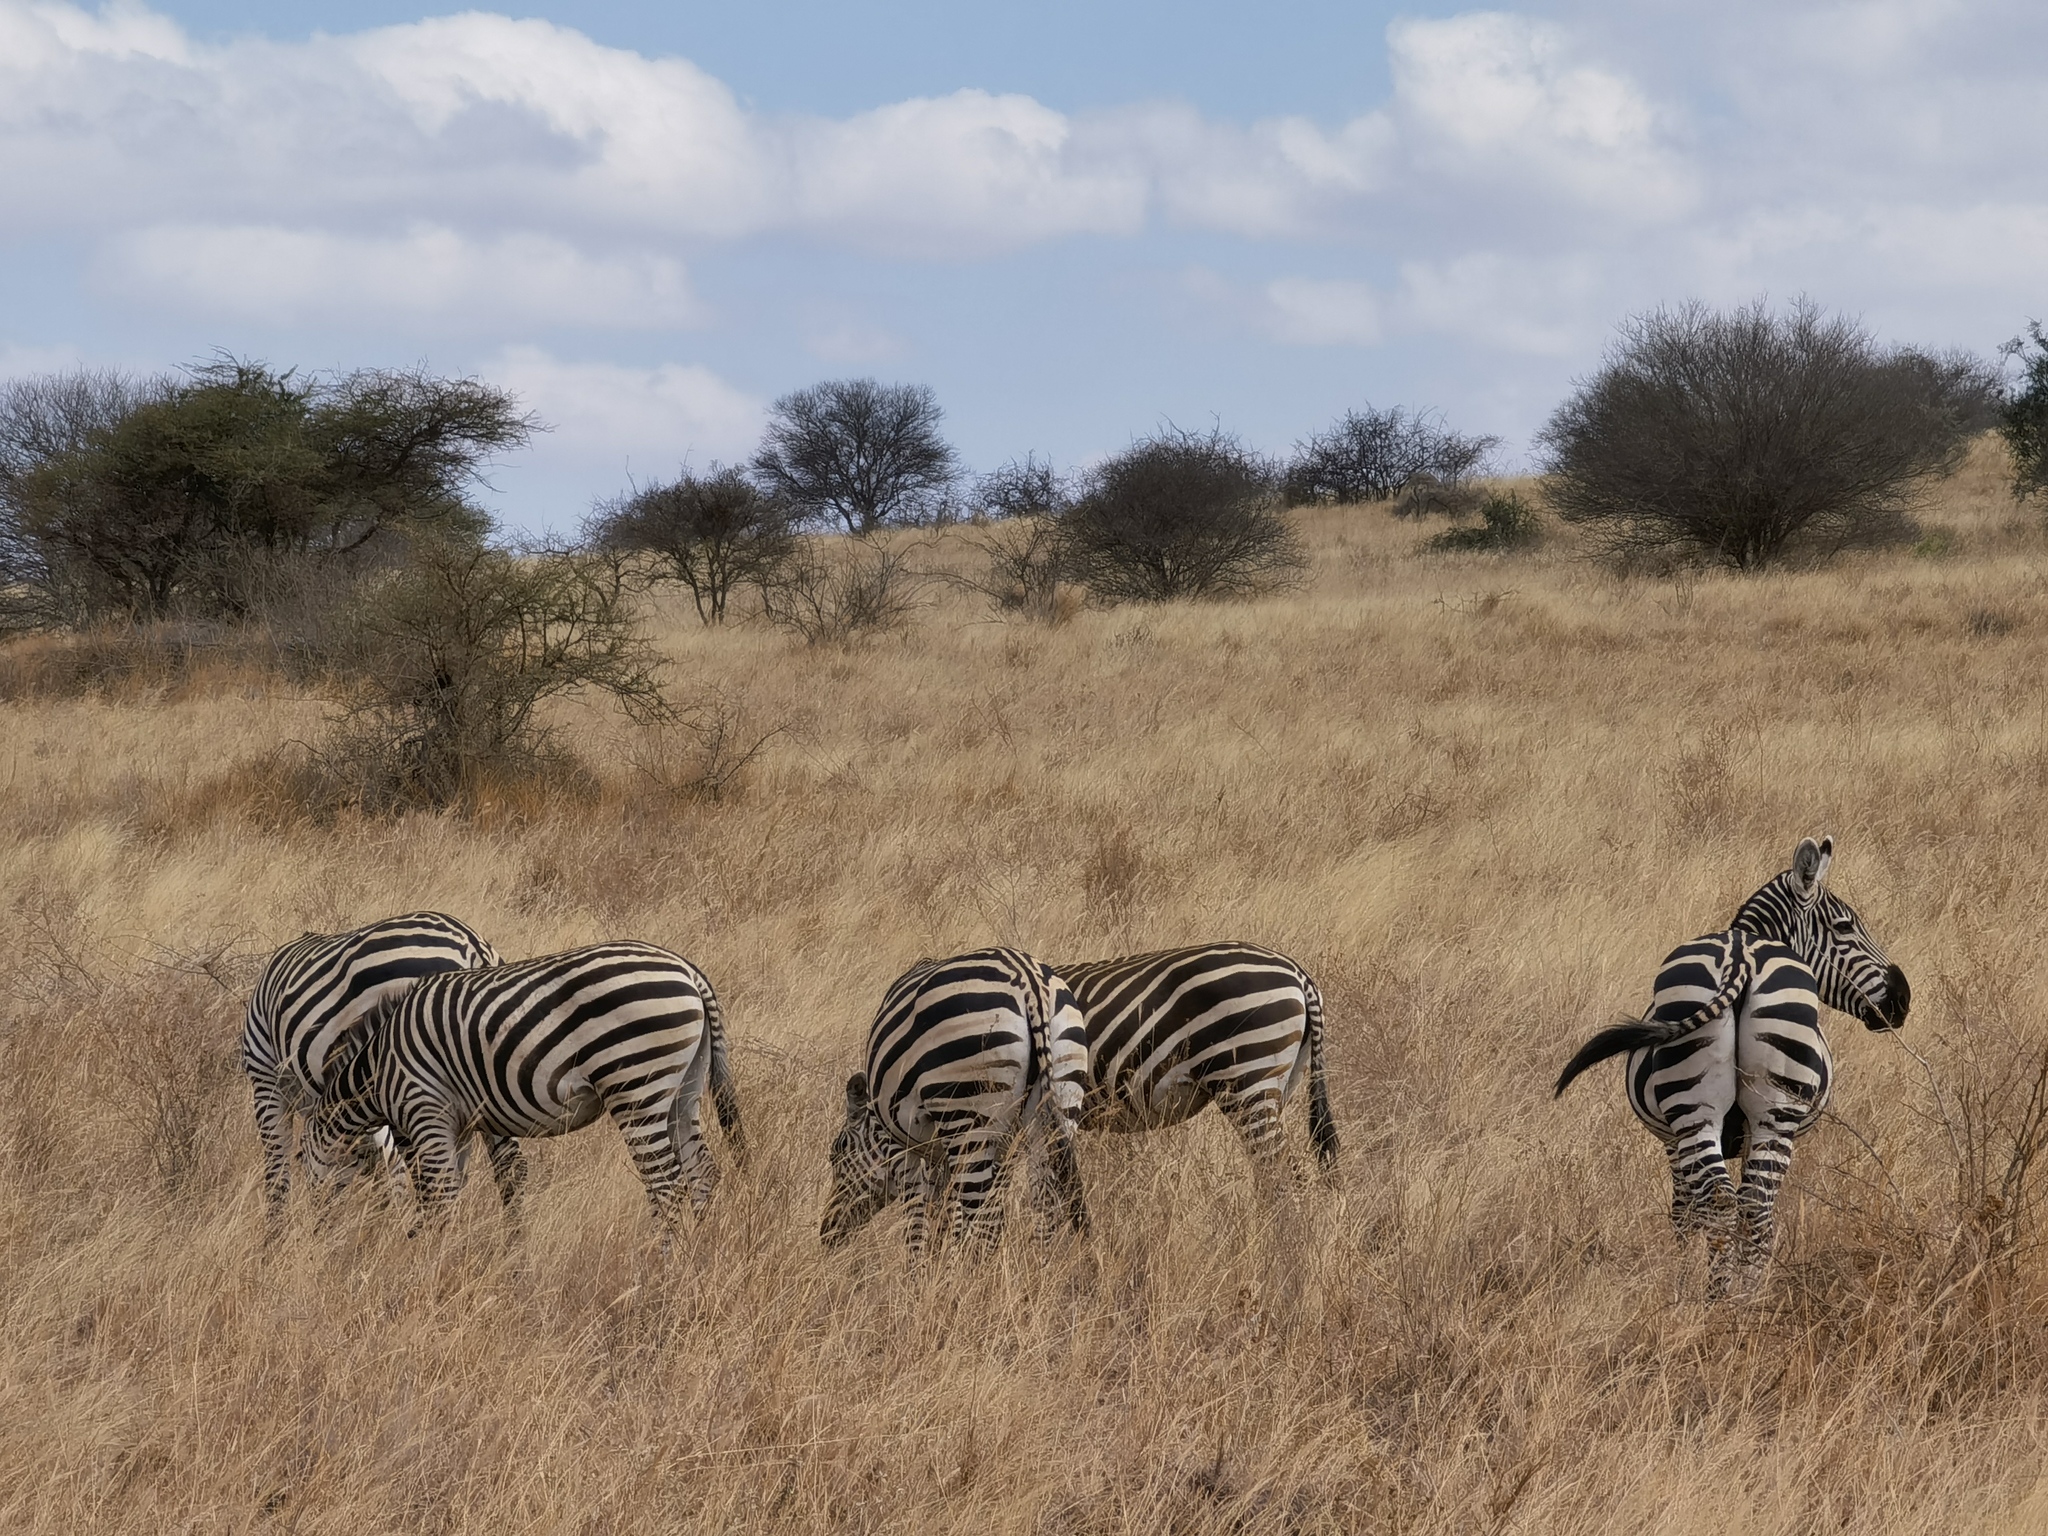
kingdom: Animalia
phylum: Chordata
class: Mammalia
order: Perissodactyla
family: Equidae
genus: Equus
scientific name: Equus quagga
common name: Plains zebra
